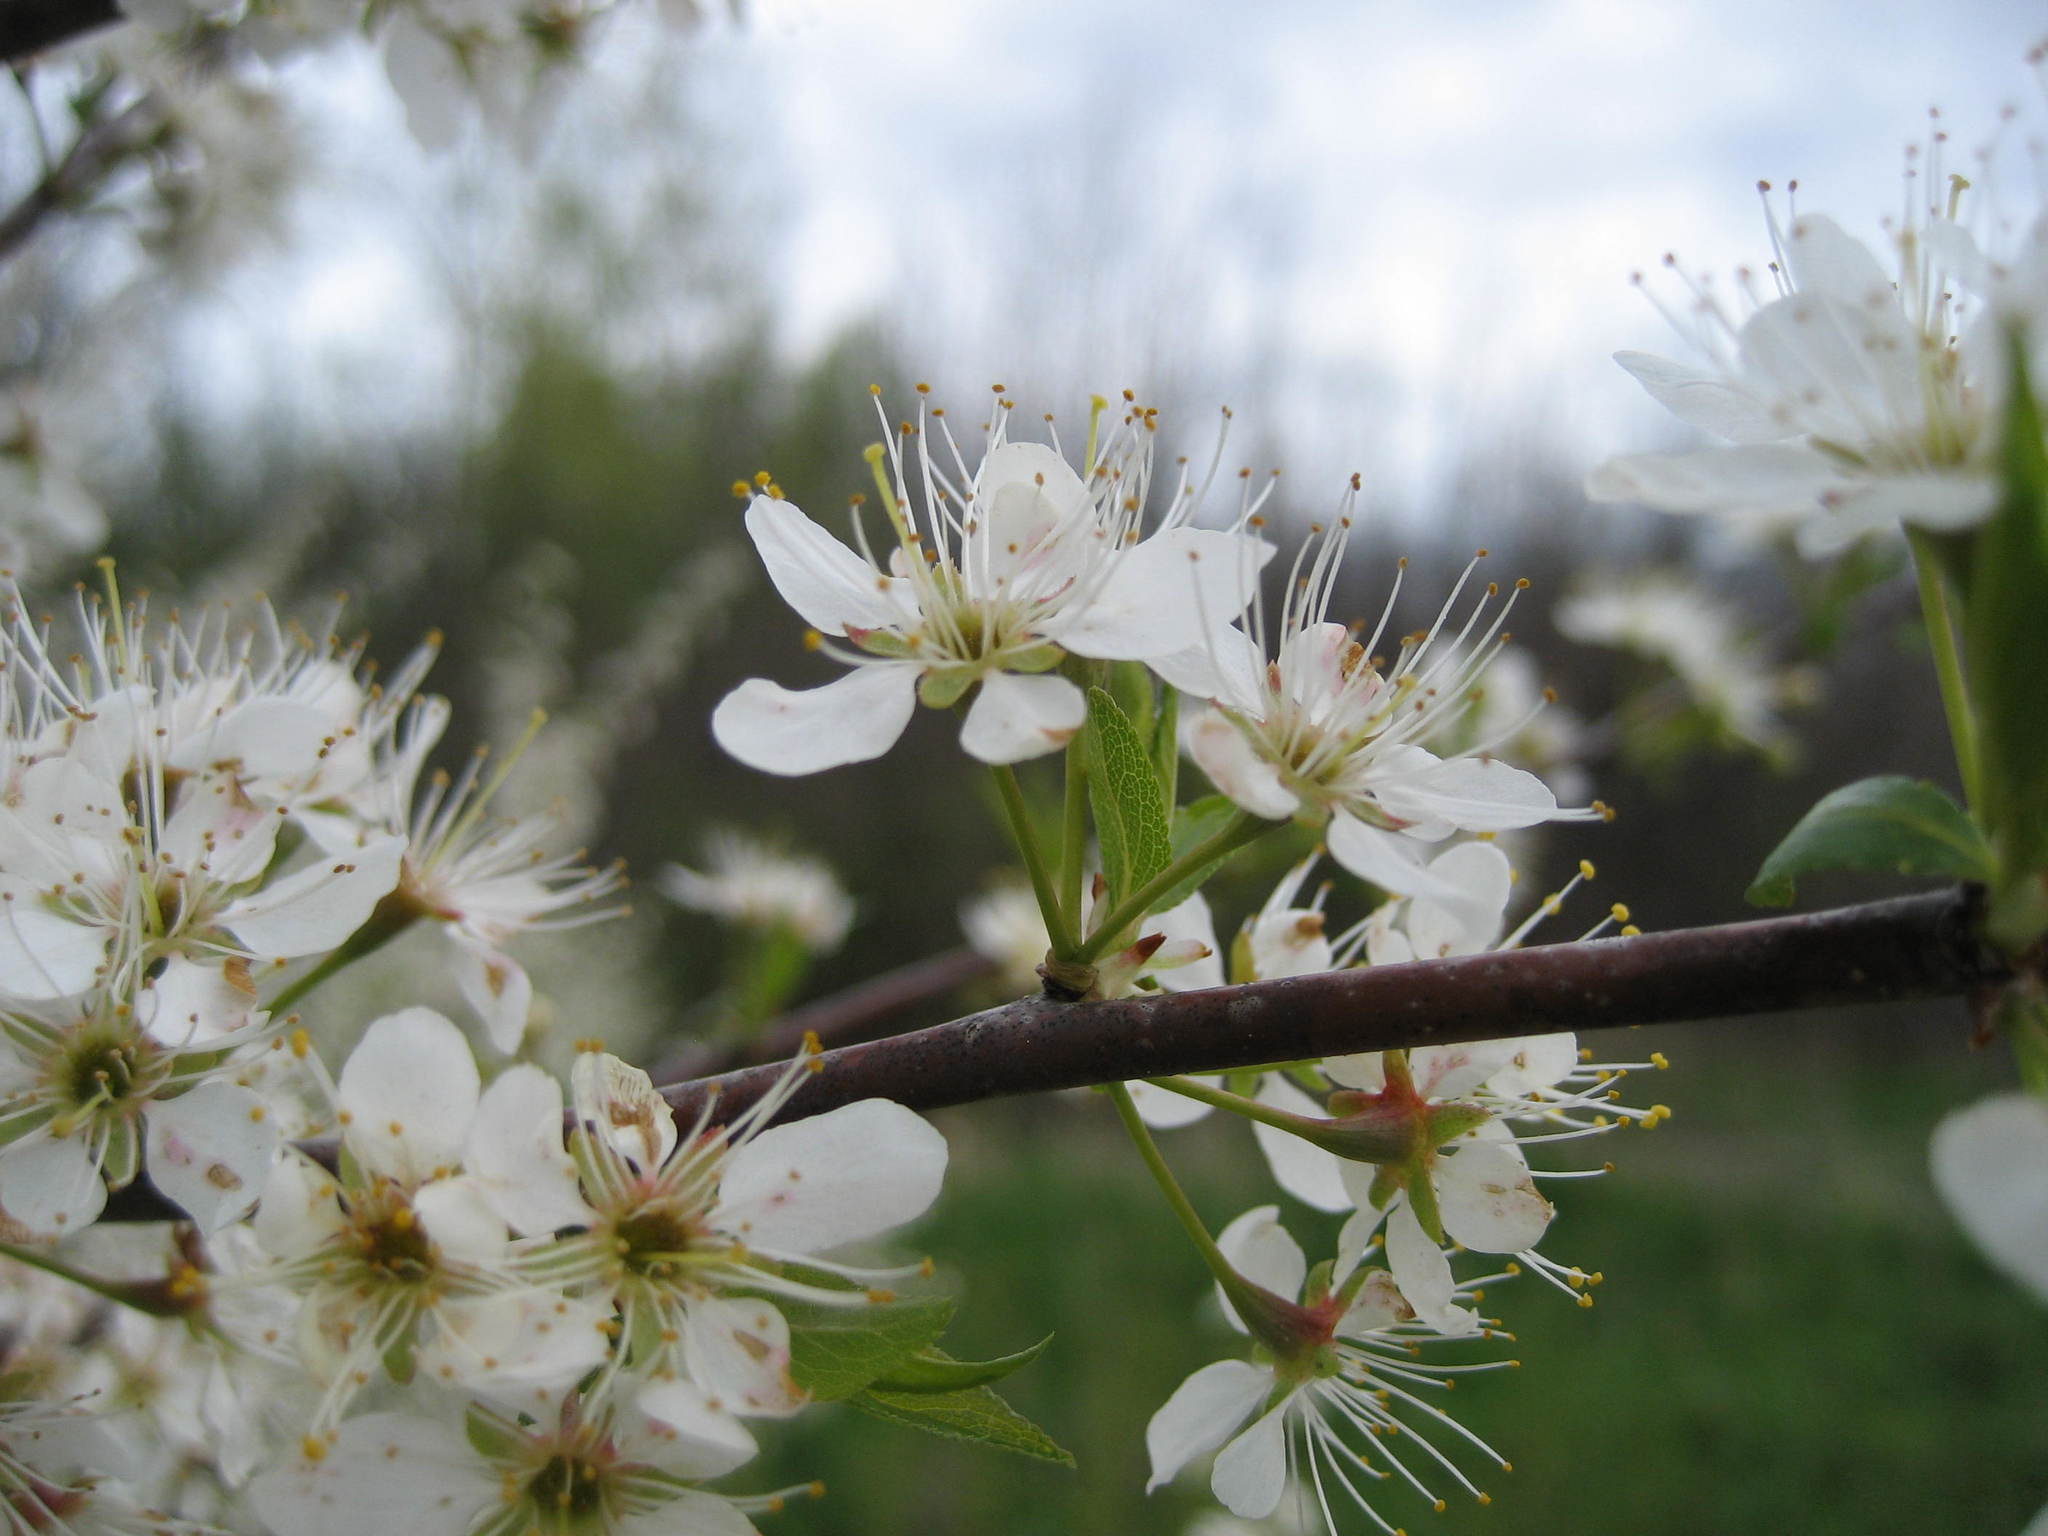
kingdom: Plantae
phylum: Tracheophyta
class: Magnoliopsida
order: Rosales
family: Rosaceae
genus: Prunus
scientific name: Prunus nigra
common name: Black plum
